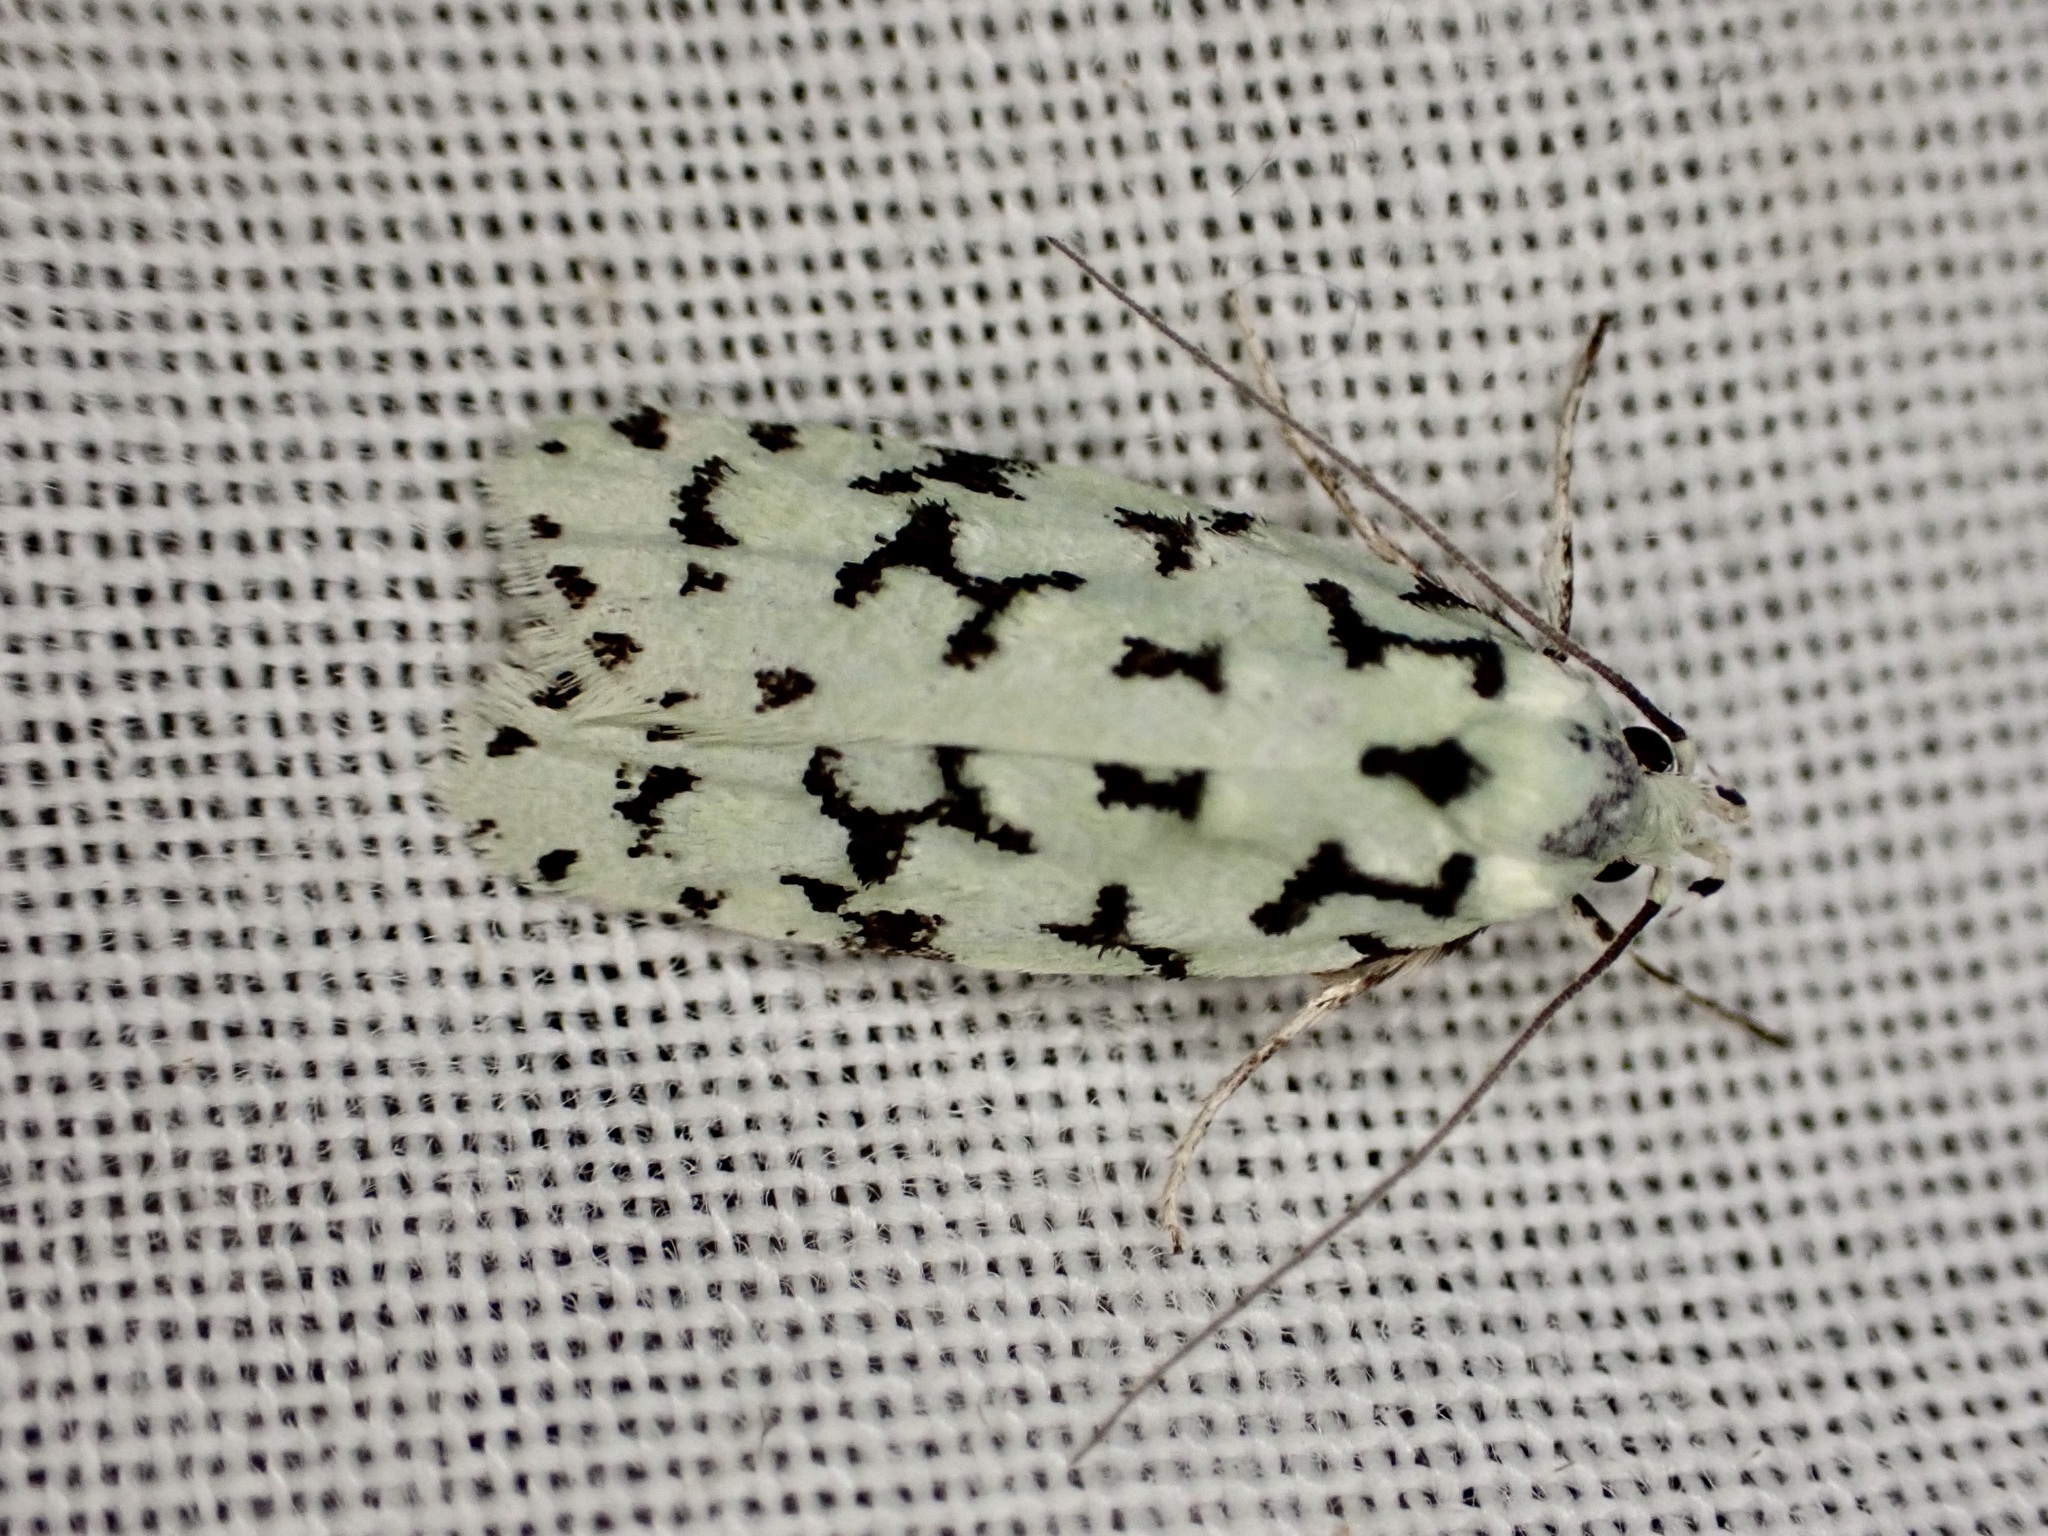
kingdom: Animalia
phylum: Arthropoda
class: Insecta
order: Lepidoptera
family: Oecophoridae
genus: Izatha
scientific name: Izatha huttoni
